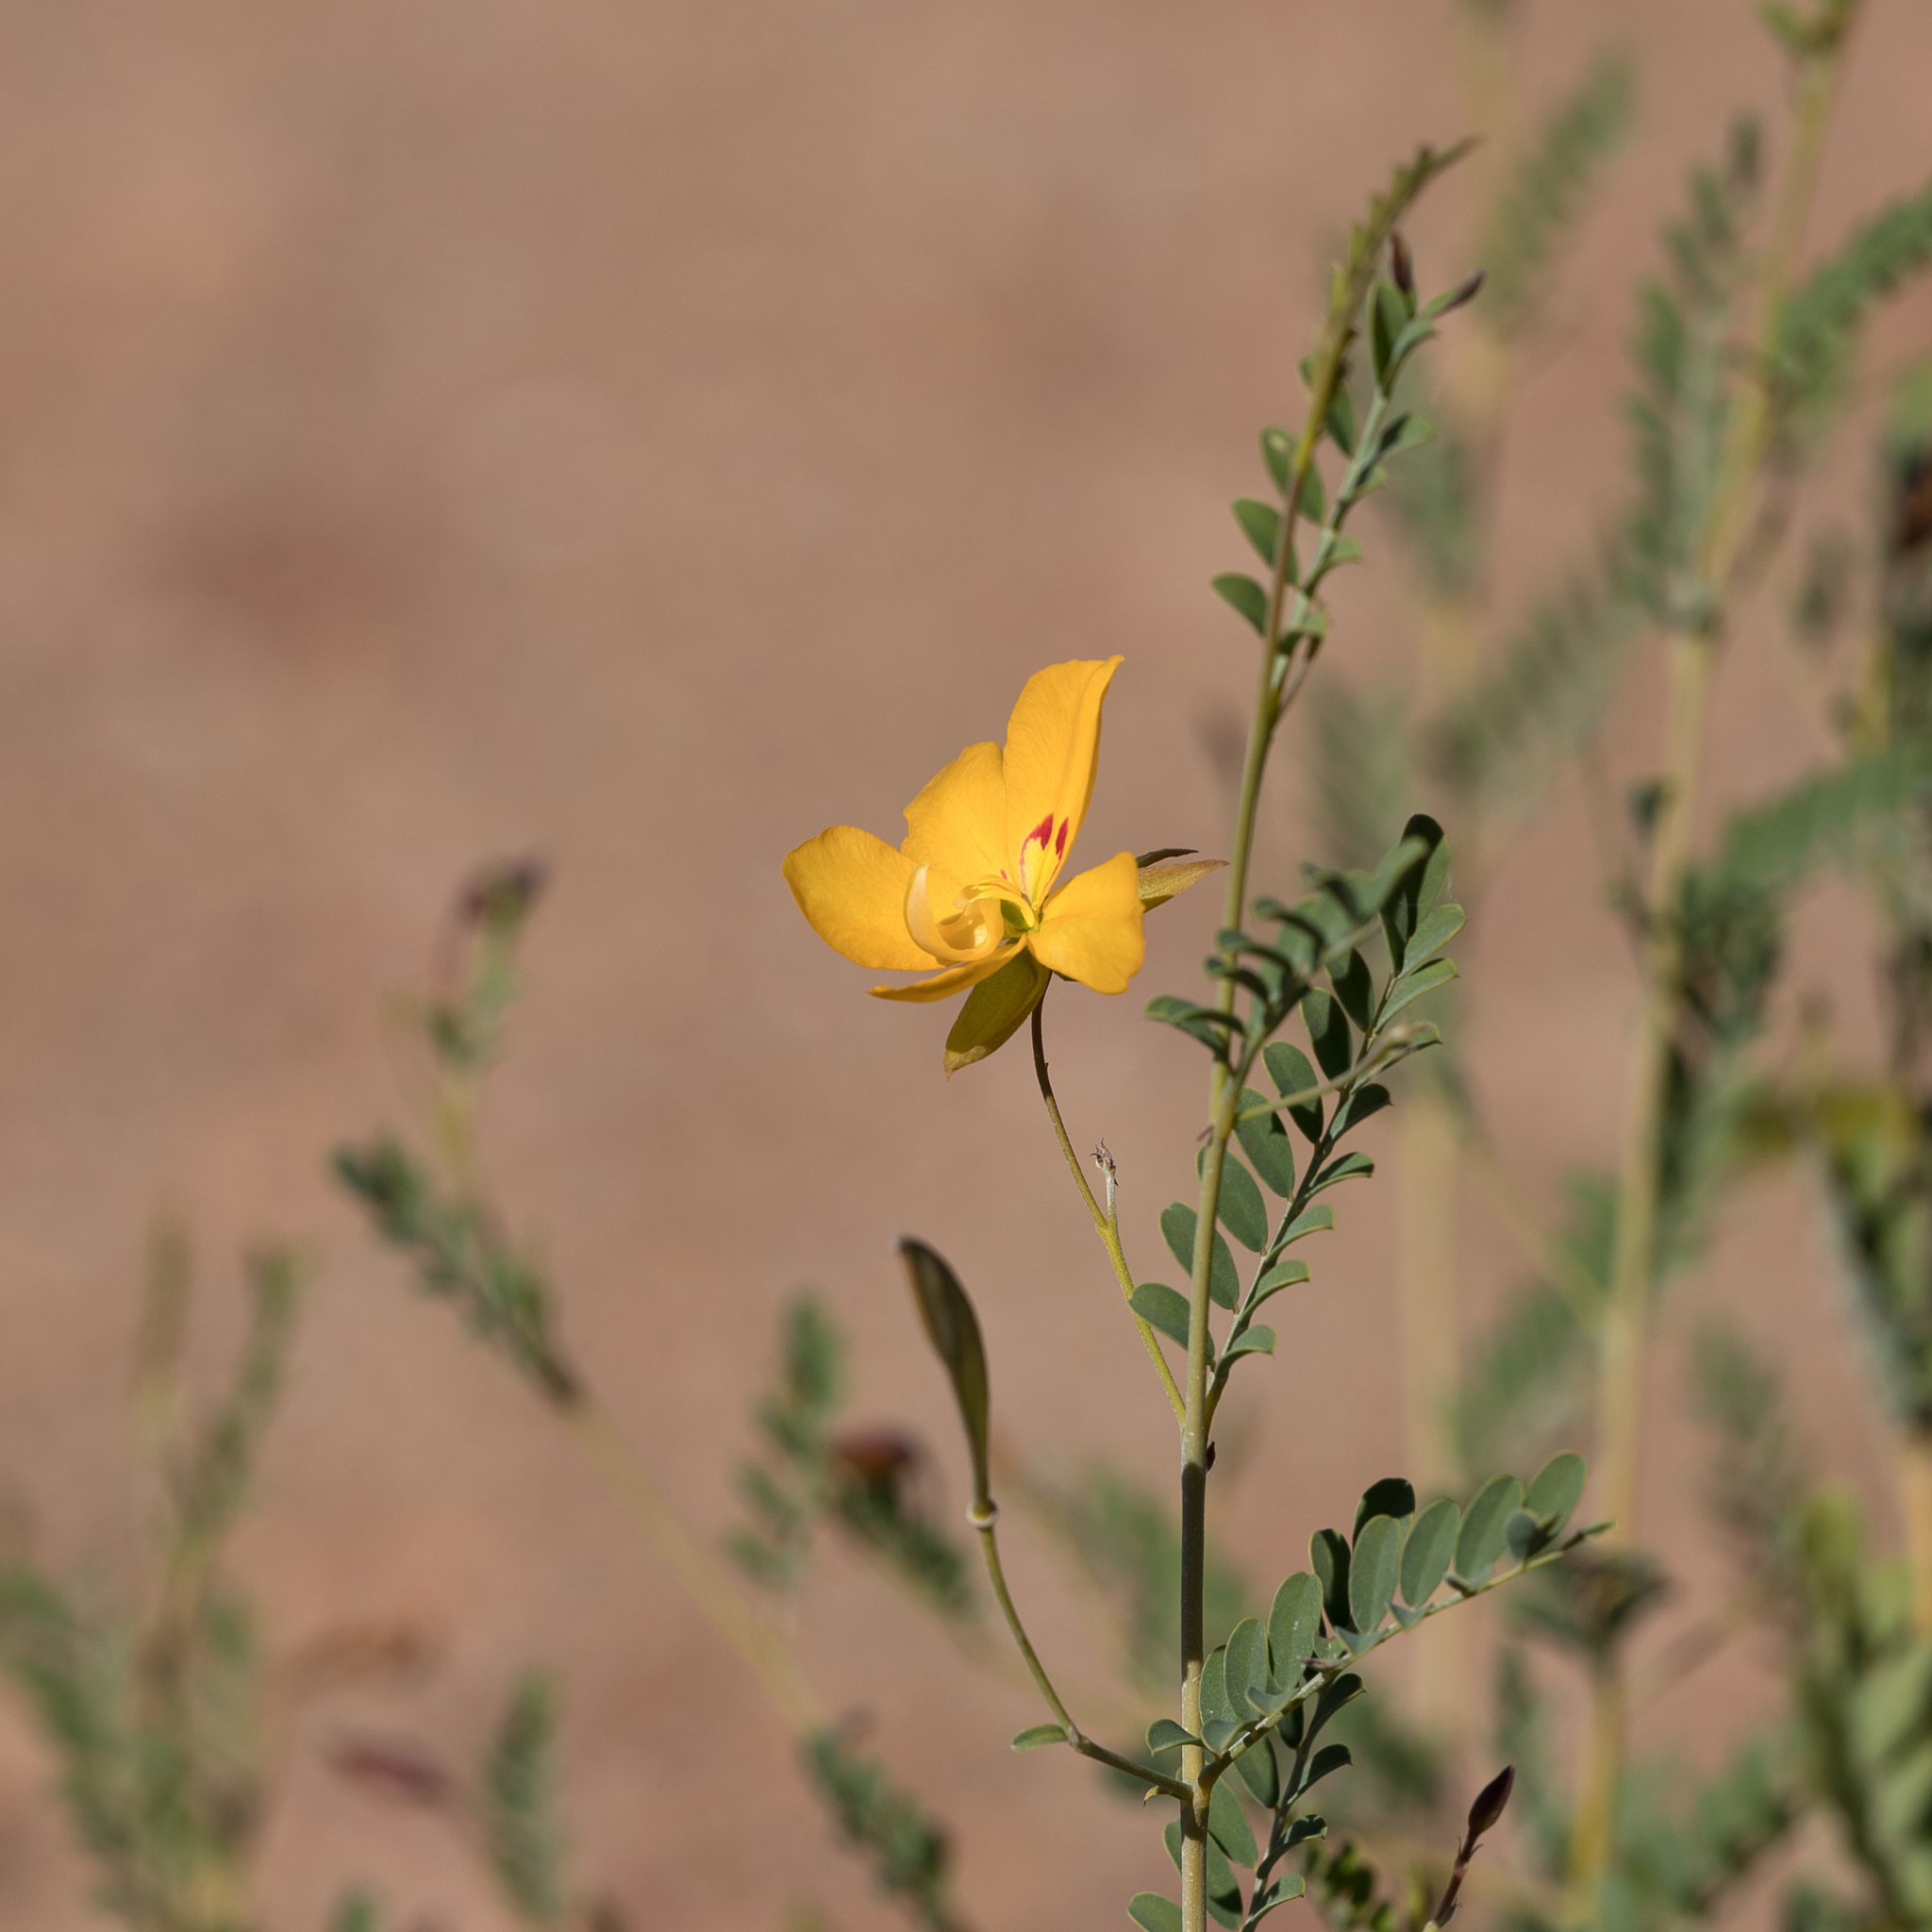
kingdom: Plantae
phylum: Tracheophyta
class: Magnoliopsida
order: Fabales
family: Fabaceae
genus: Petalostylis
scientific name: Petalostylis labicheoides
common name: Butterfly bush
